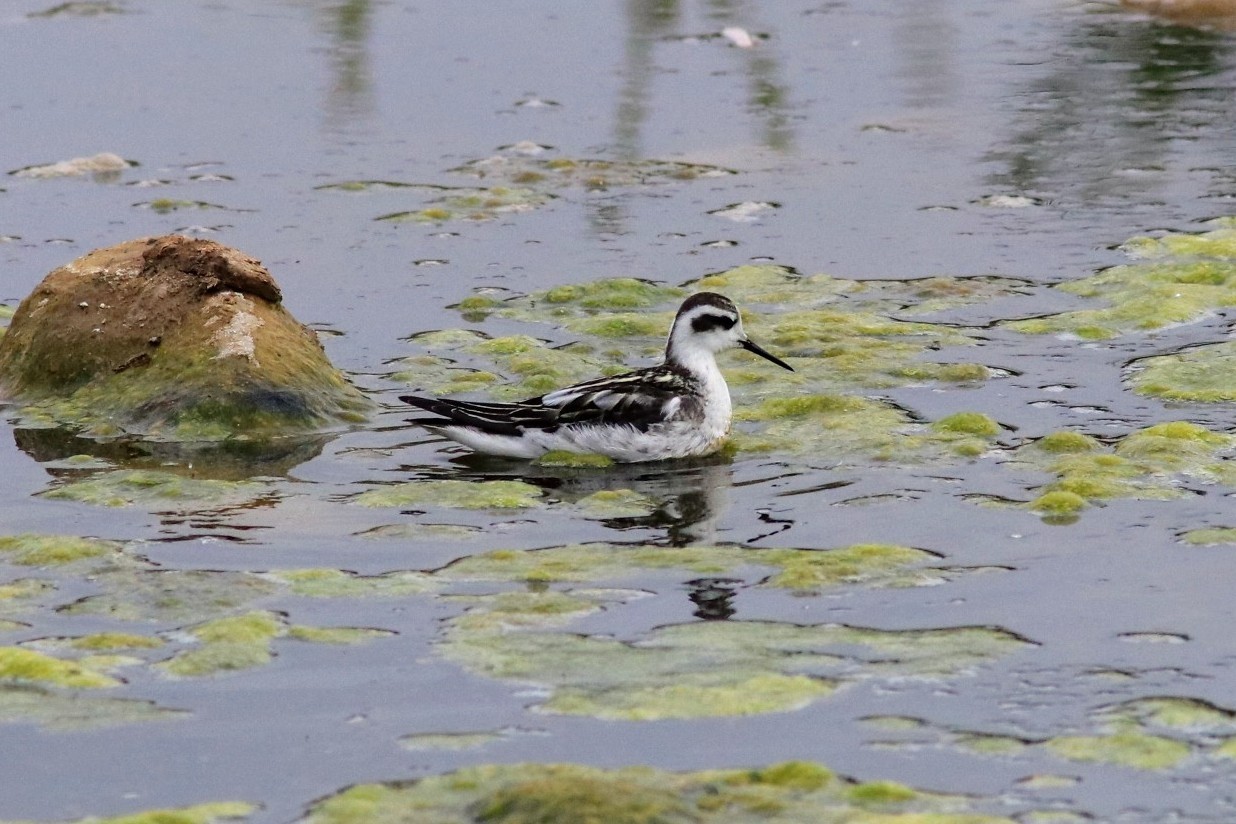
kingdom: Animalia
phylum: Chordata
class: Aves
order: Charadriiformes
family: Scolopacidae
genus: Phalaropus
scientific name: Phalaropus lobatus
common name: Red-necked phalarope
